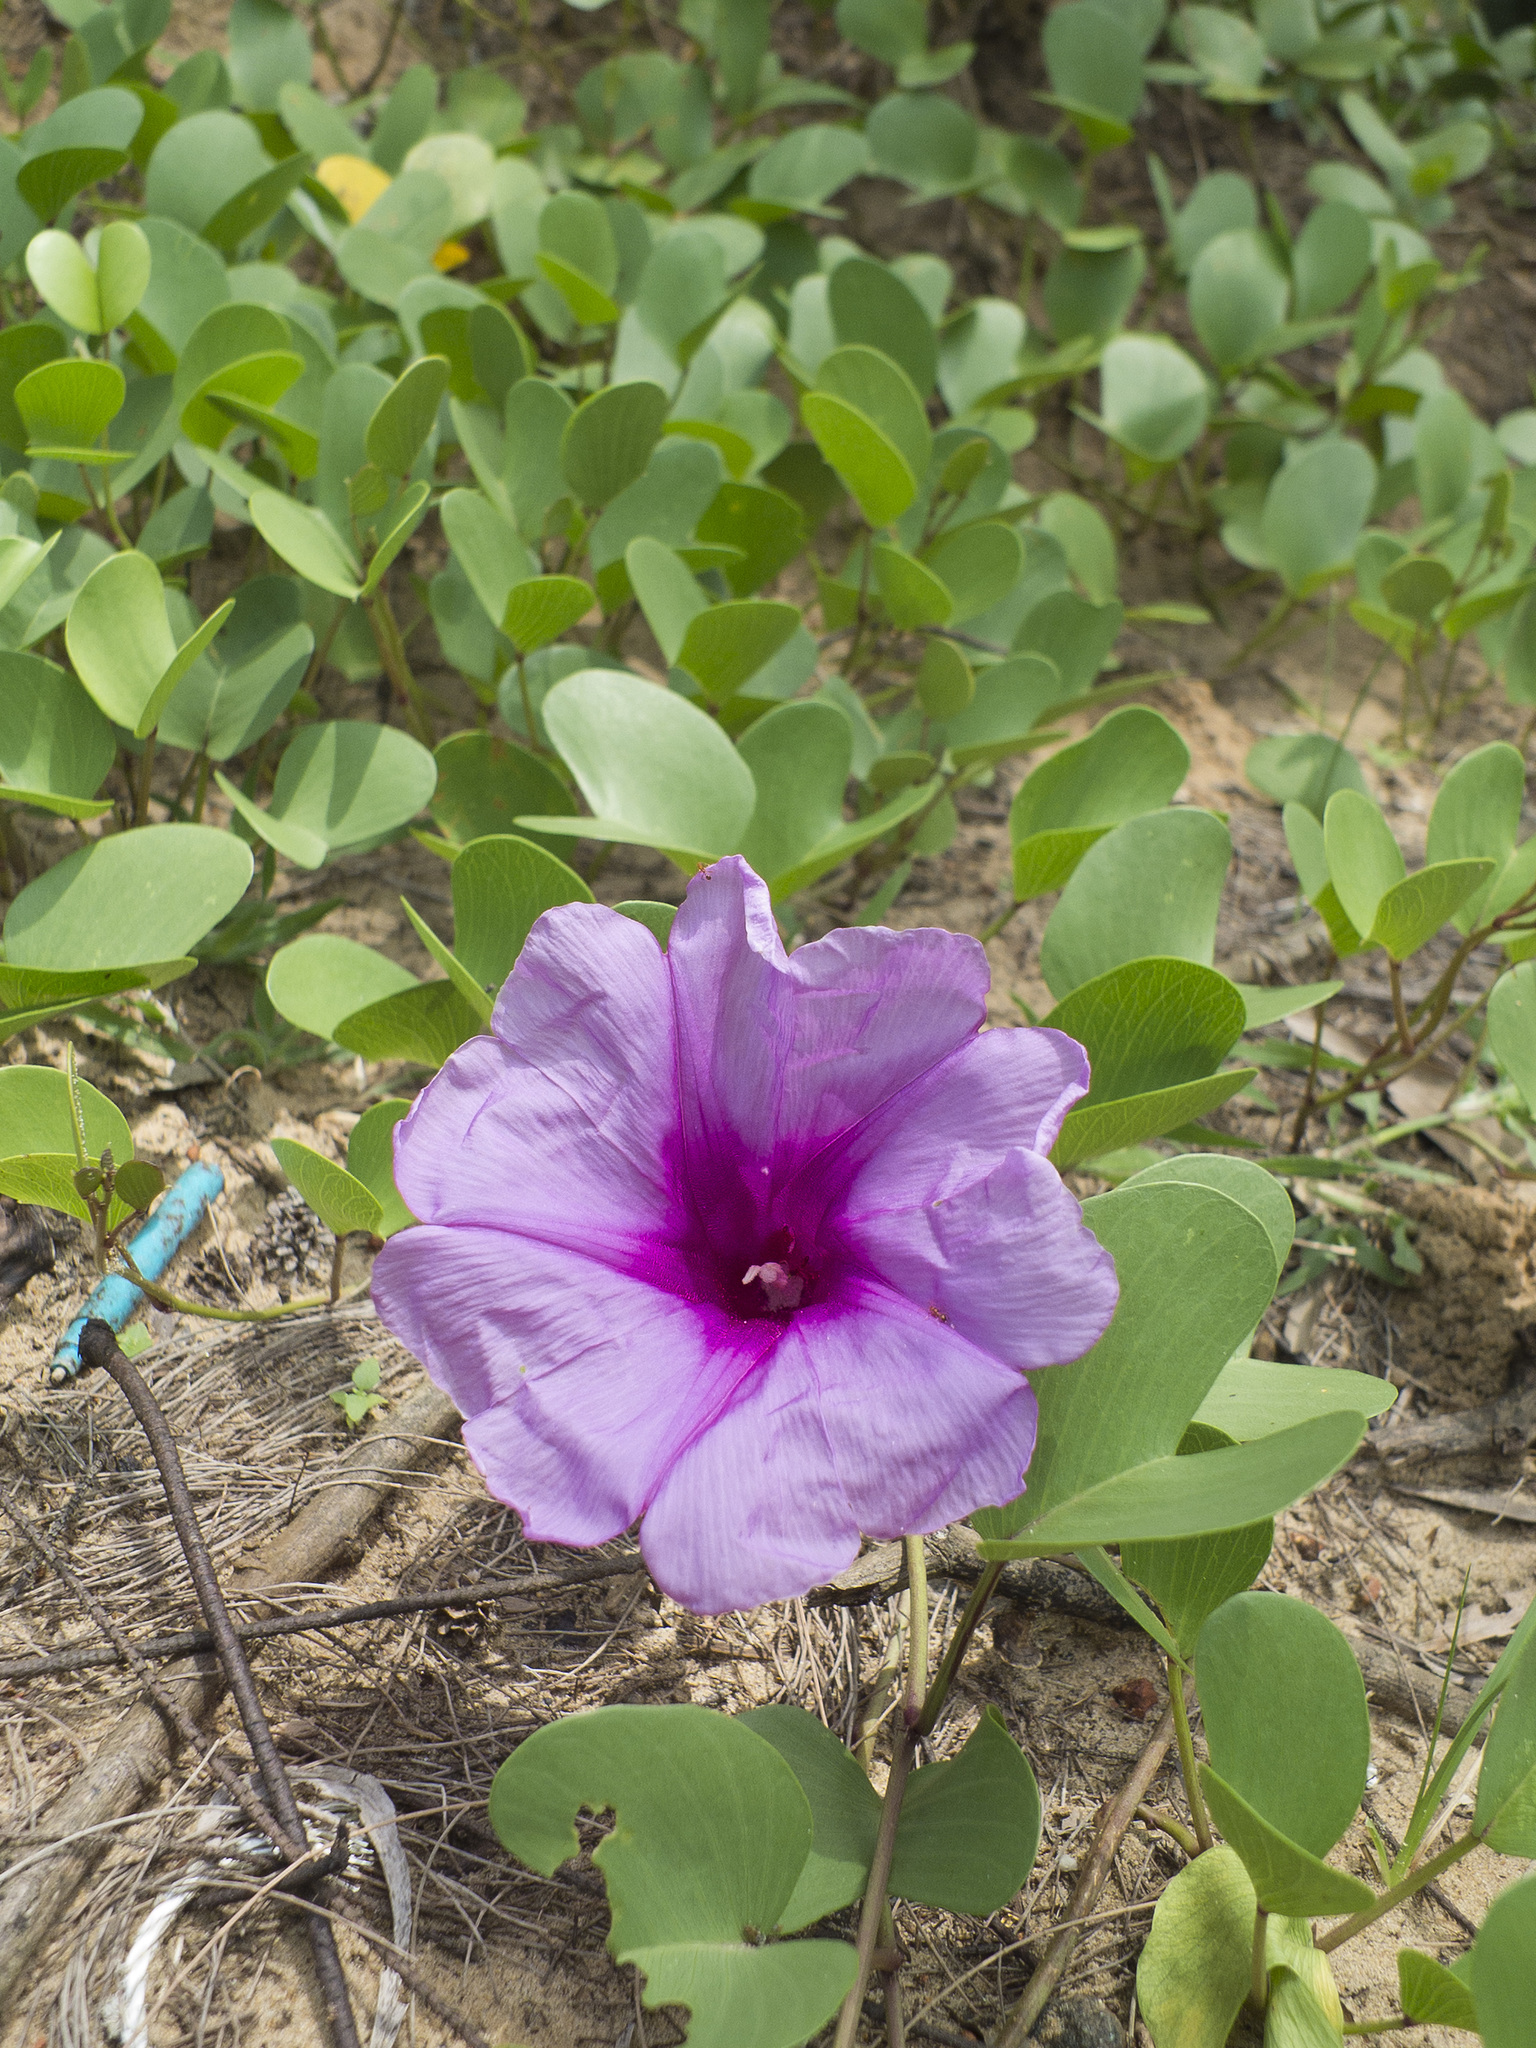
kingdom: Plantae
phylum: Tracheophyta
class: Magnoliopsida
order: Solanales
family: Convolvulaceae
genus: Ipomoea
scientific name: Ipomoea pes-caprae
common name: Beach morning glory
